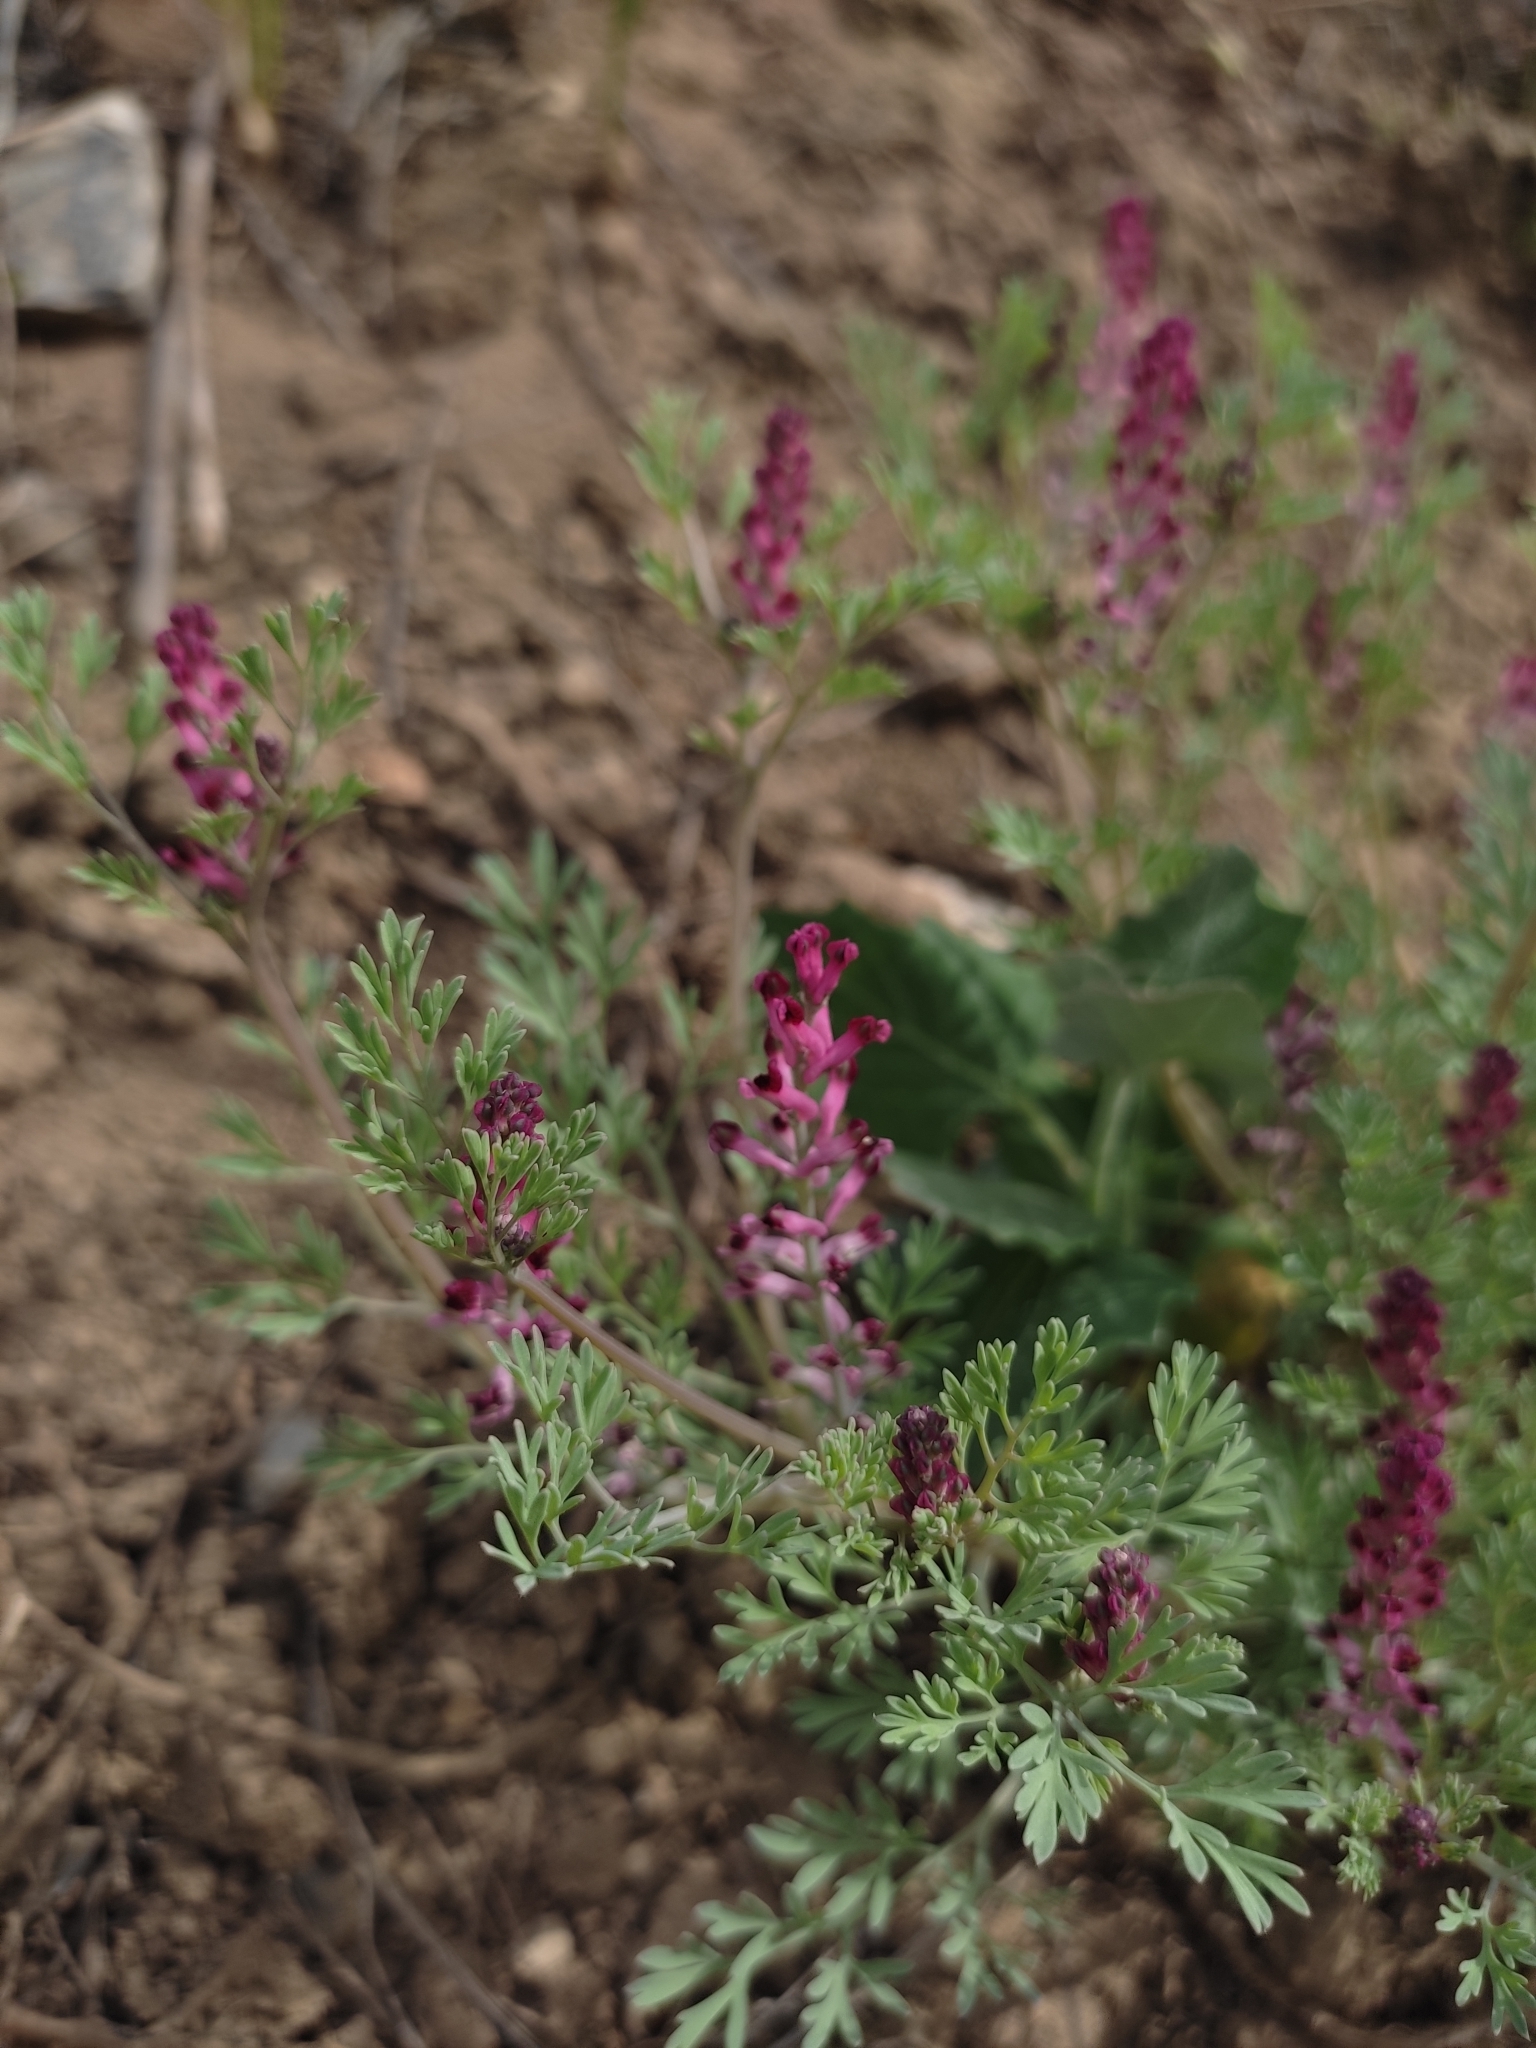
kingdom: Plantae
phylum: Tracheophyta
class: Magnoliopsida
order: Ranunculales
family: Papaveraceae
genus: Fumaria
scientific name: Fumaria schleicheri
